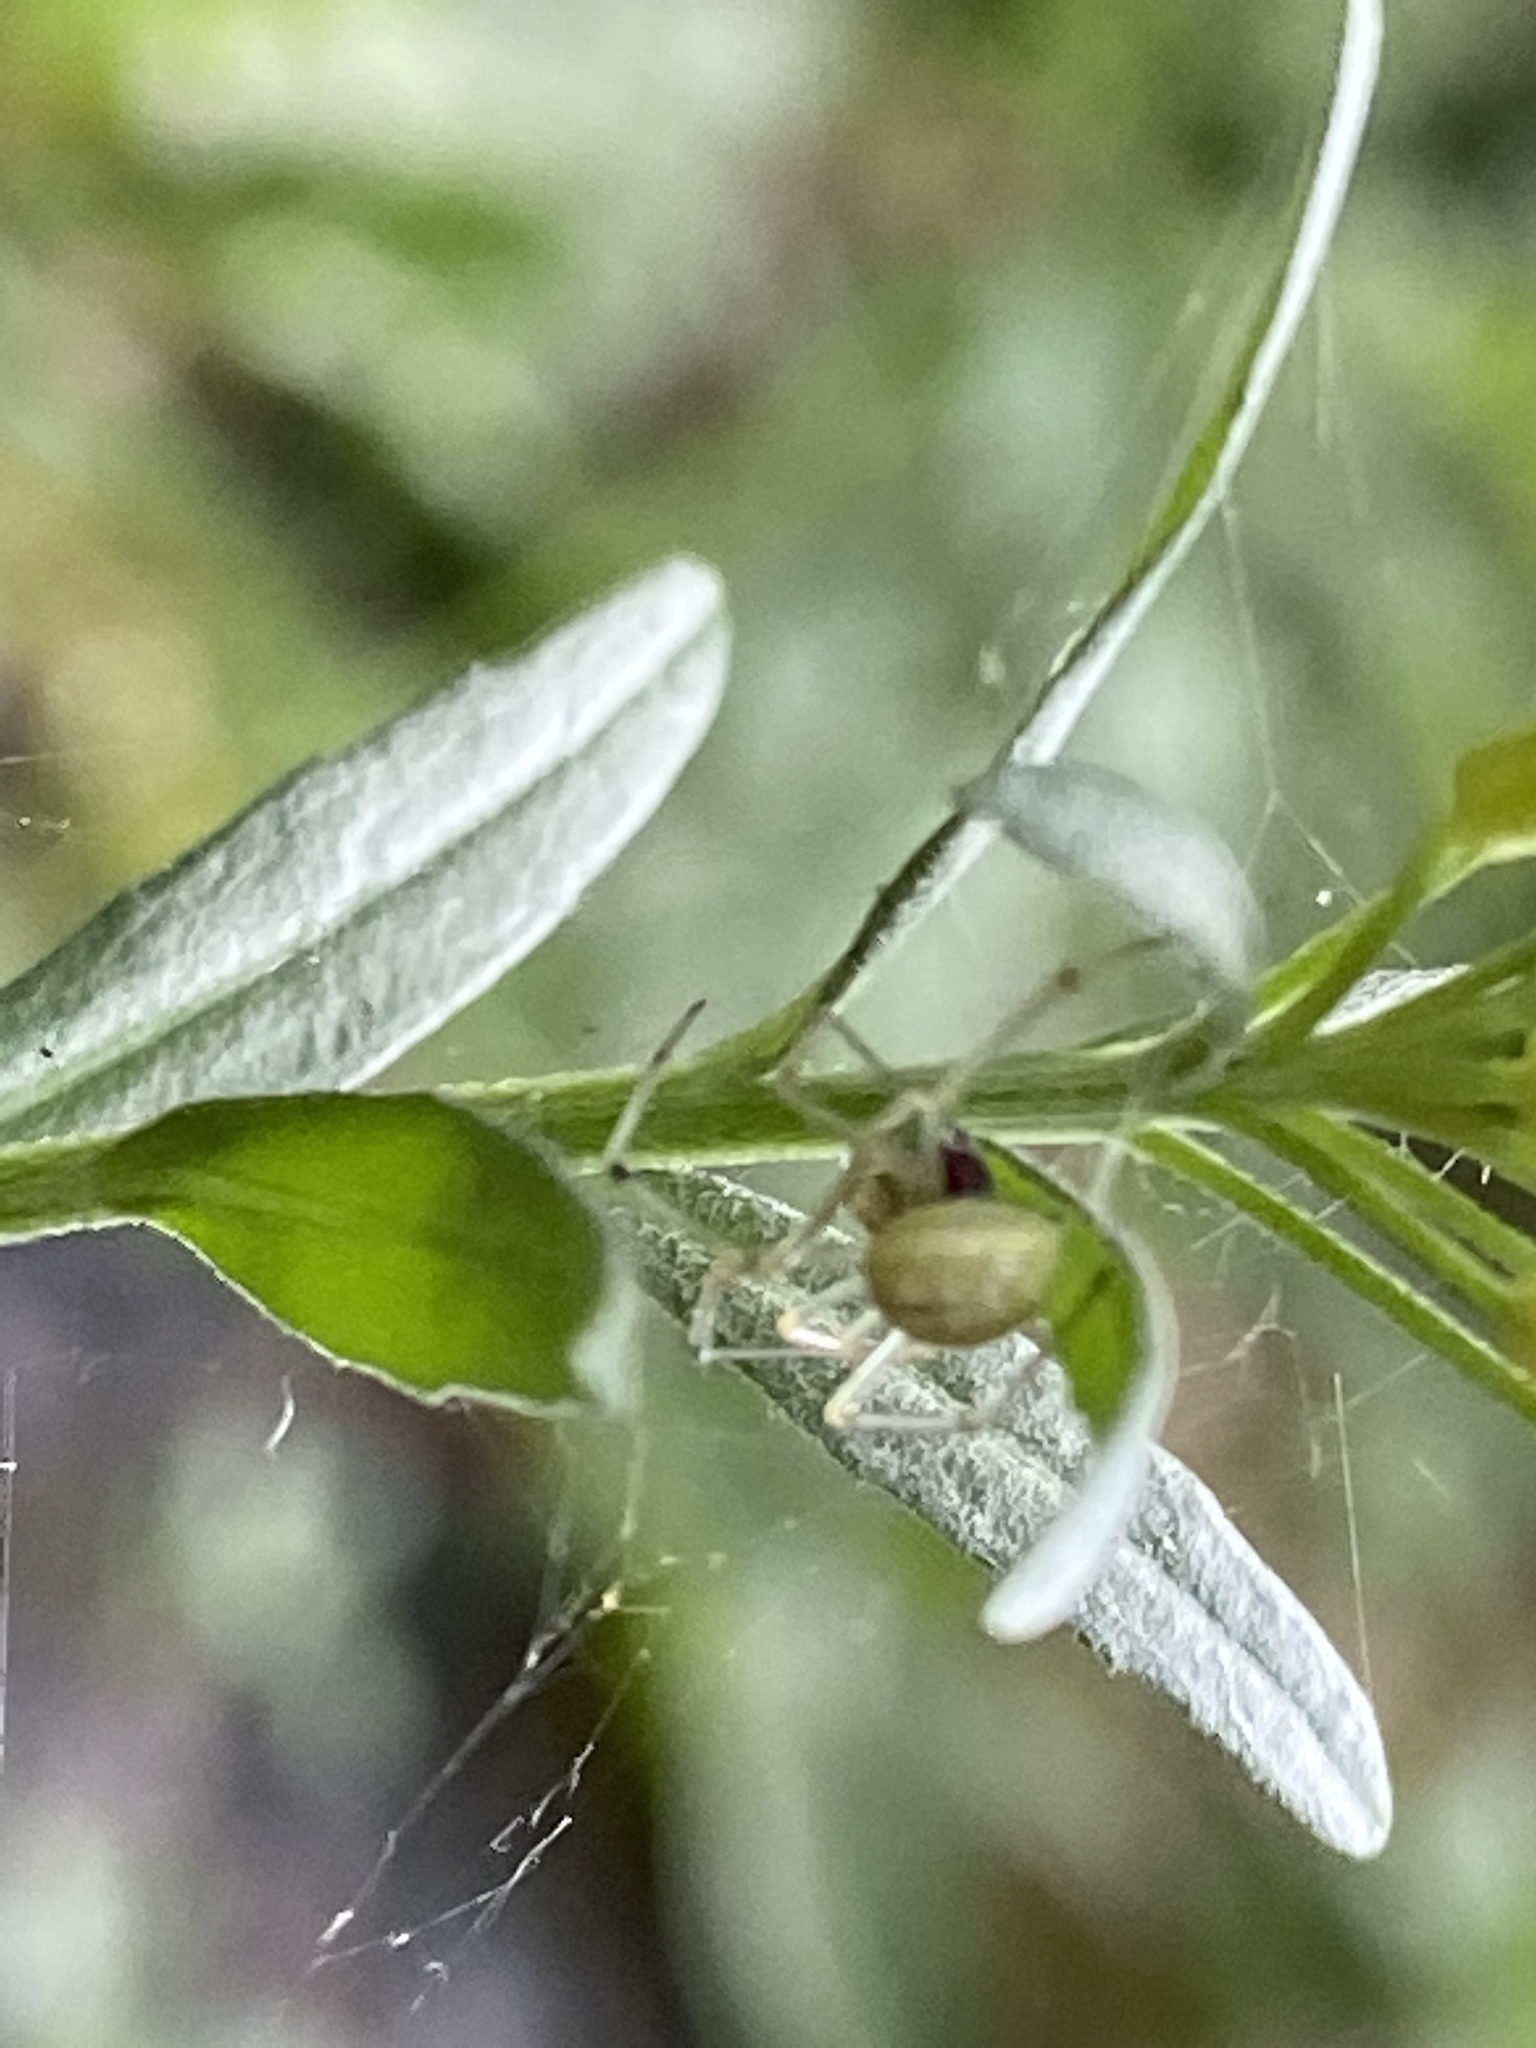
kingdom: Animalia
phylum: Arthropoda
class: Arachnida
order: Araneae
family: Theridiidae
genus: Enoplognatha
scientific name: Enoplognatha ovata
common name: Common candy-striped spider
